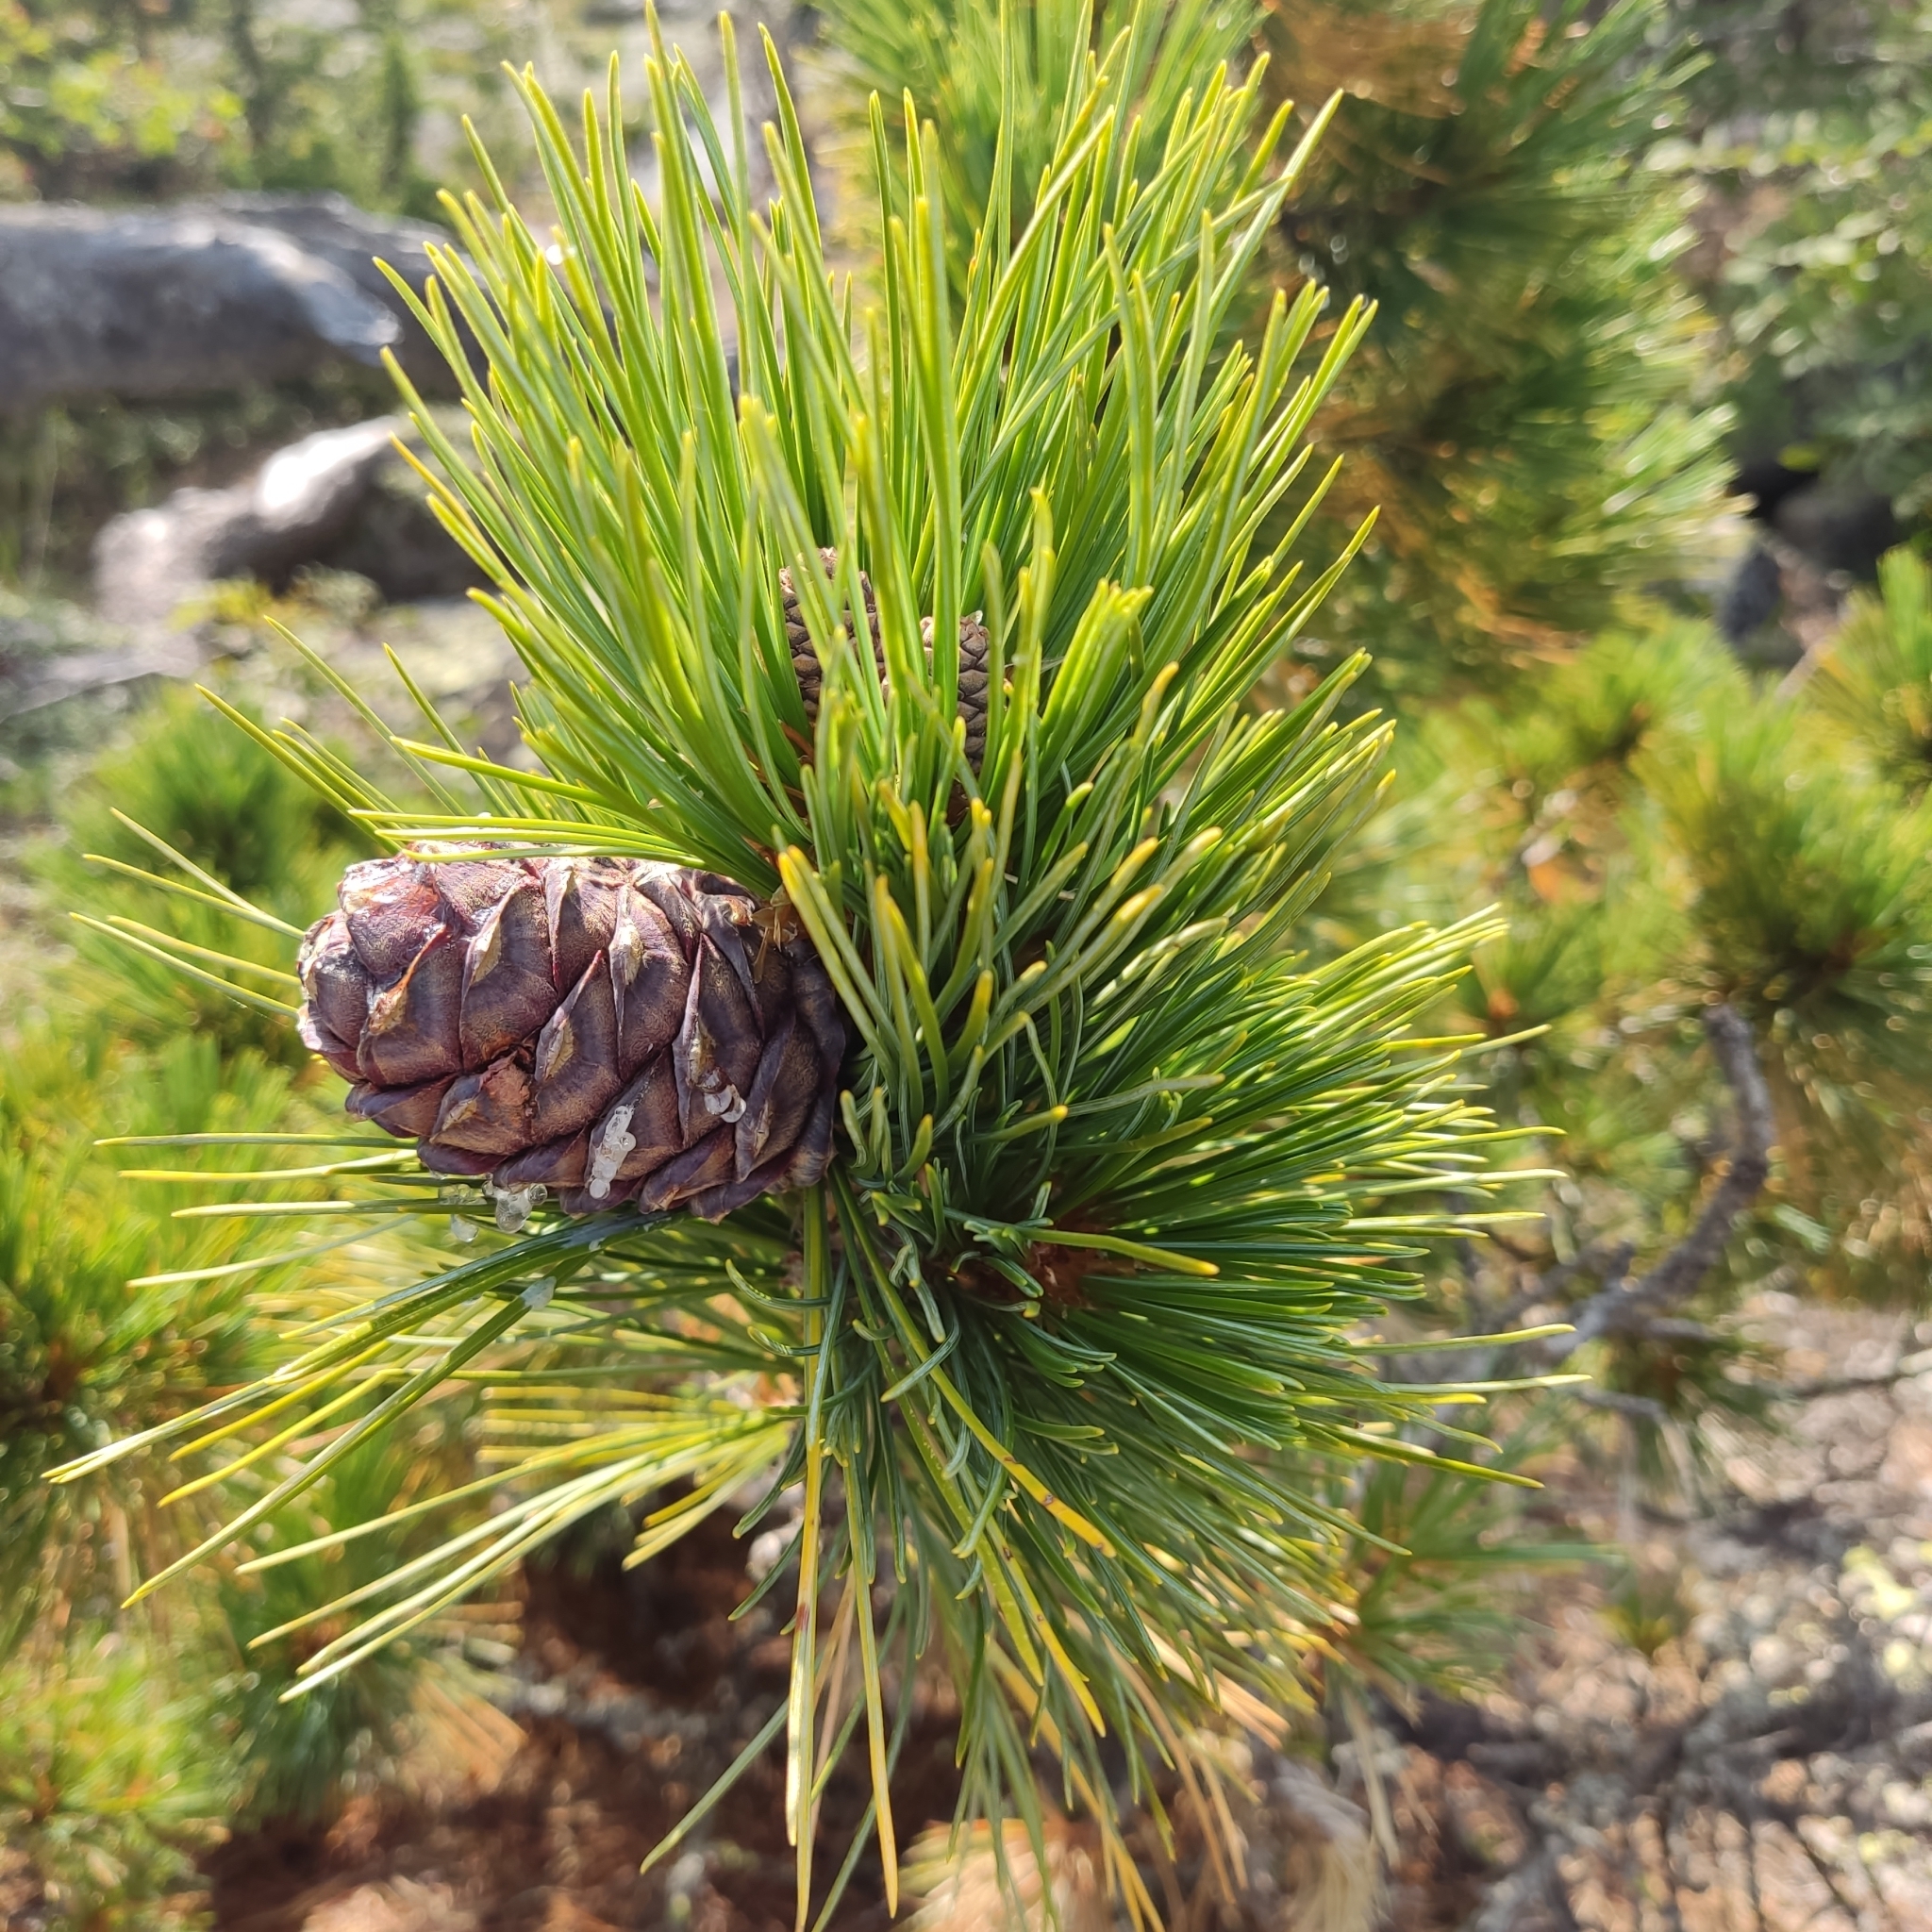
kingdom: Plantae
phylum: Tracheophyta
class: Pinopsida
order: Pinales
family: Pinaceae
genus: Pinus
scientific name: Pinus sibirica
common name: Siberian pine
